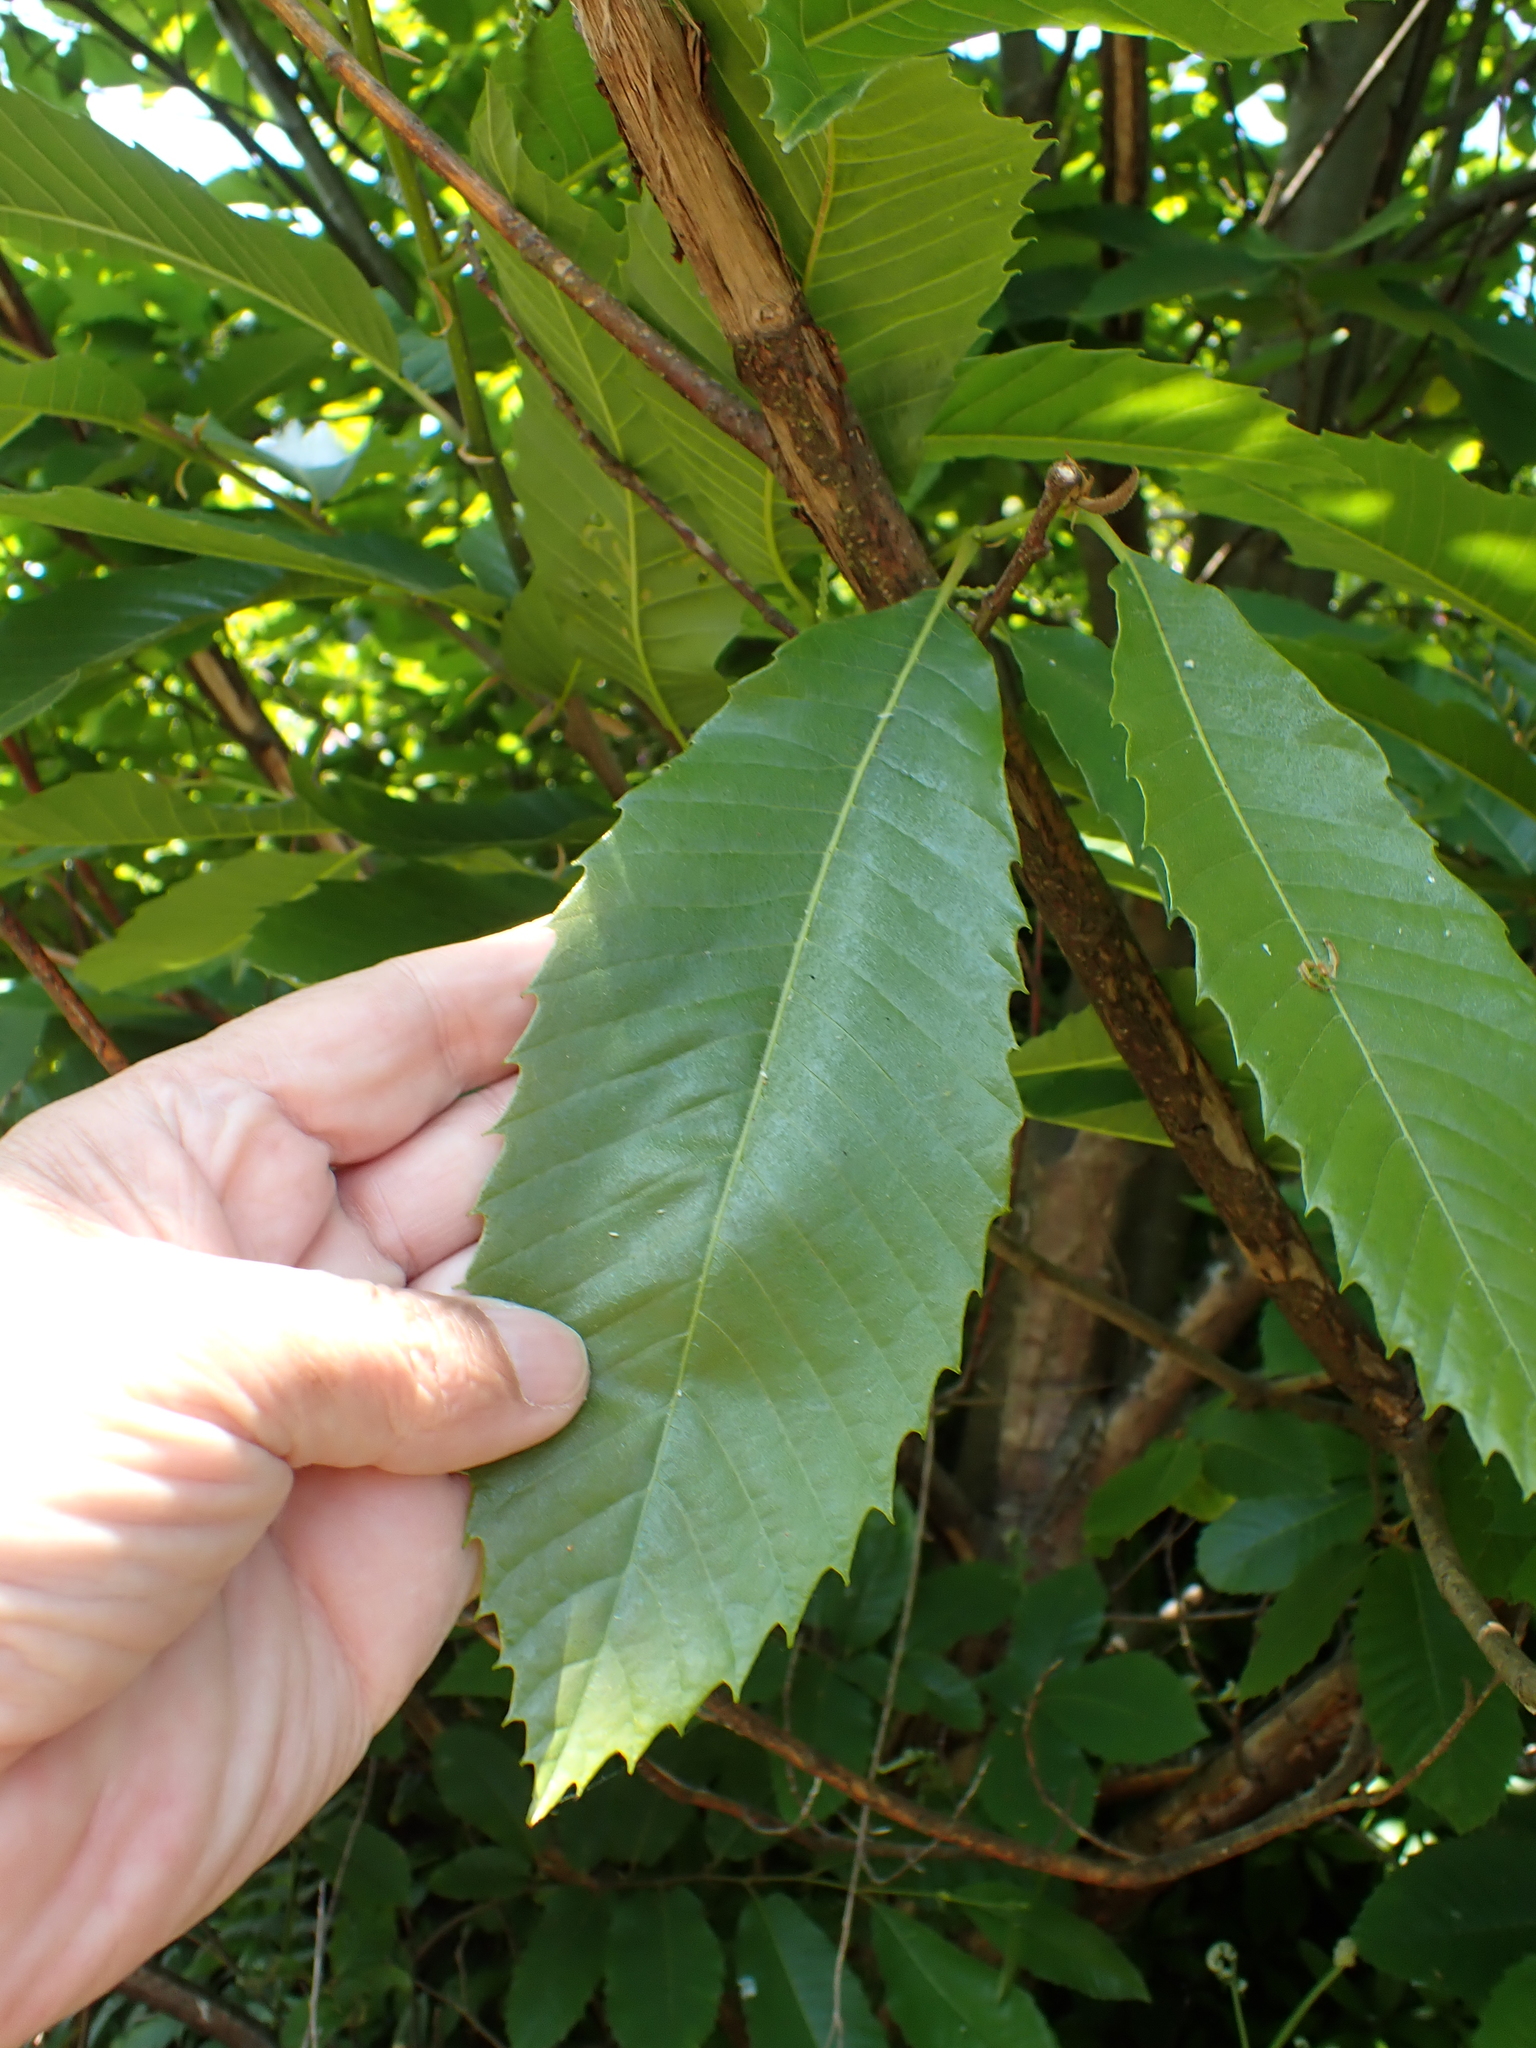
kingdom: Plantae
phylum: Tracheophyta
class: Magnoliopsida
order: Fagales
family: Fagaceae
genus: Castanea
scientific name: Castanea sativa
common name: Sweet chestnut
